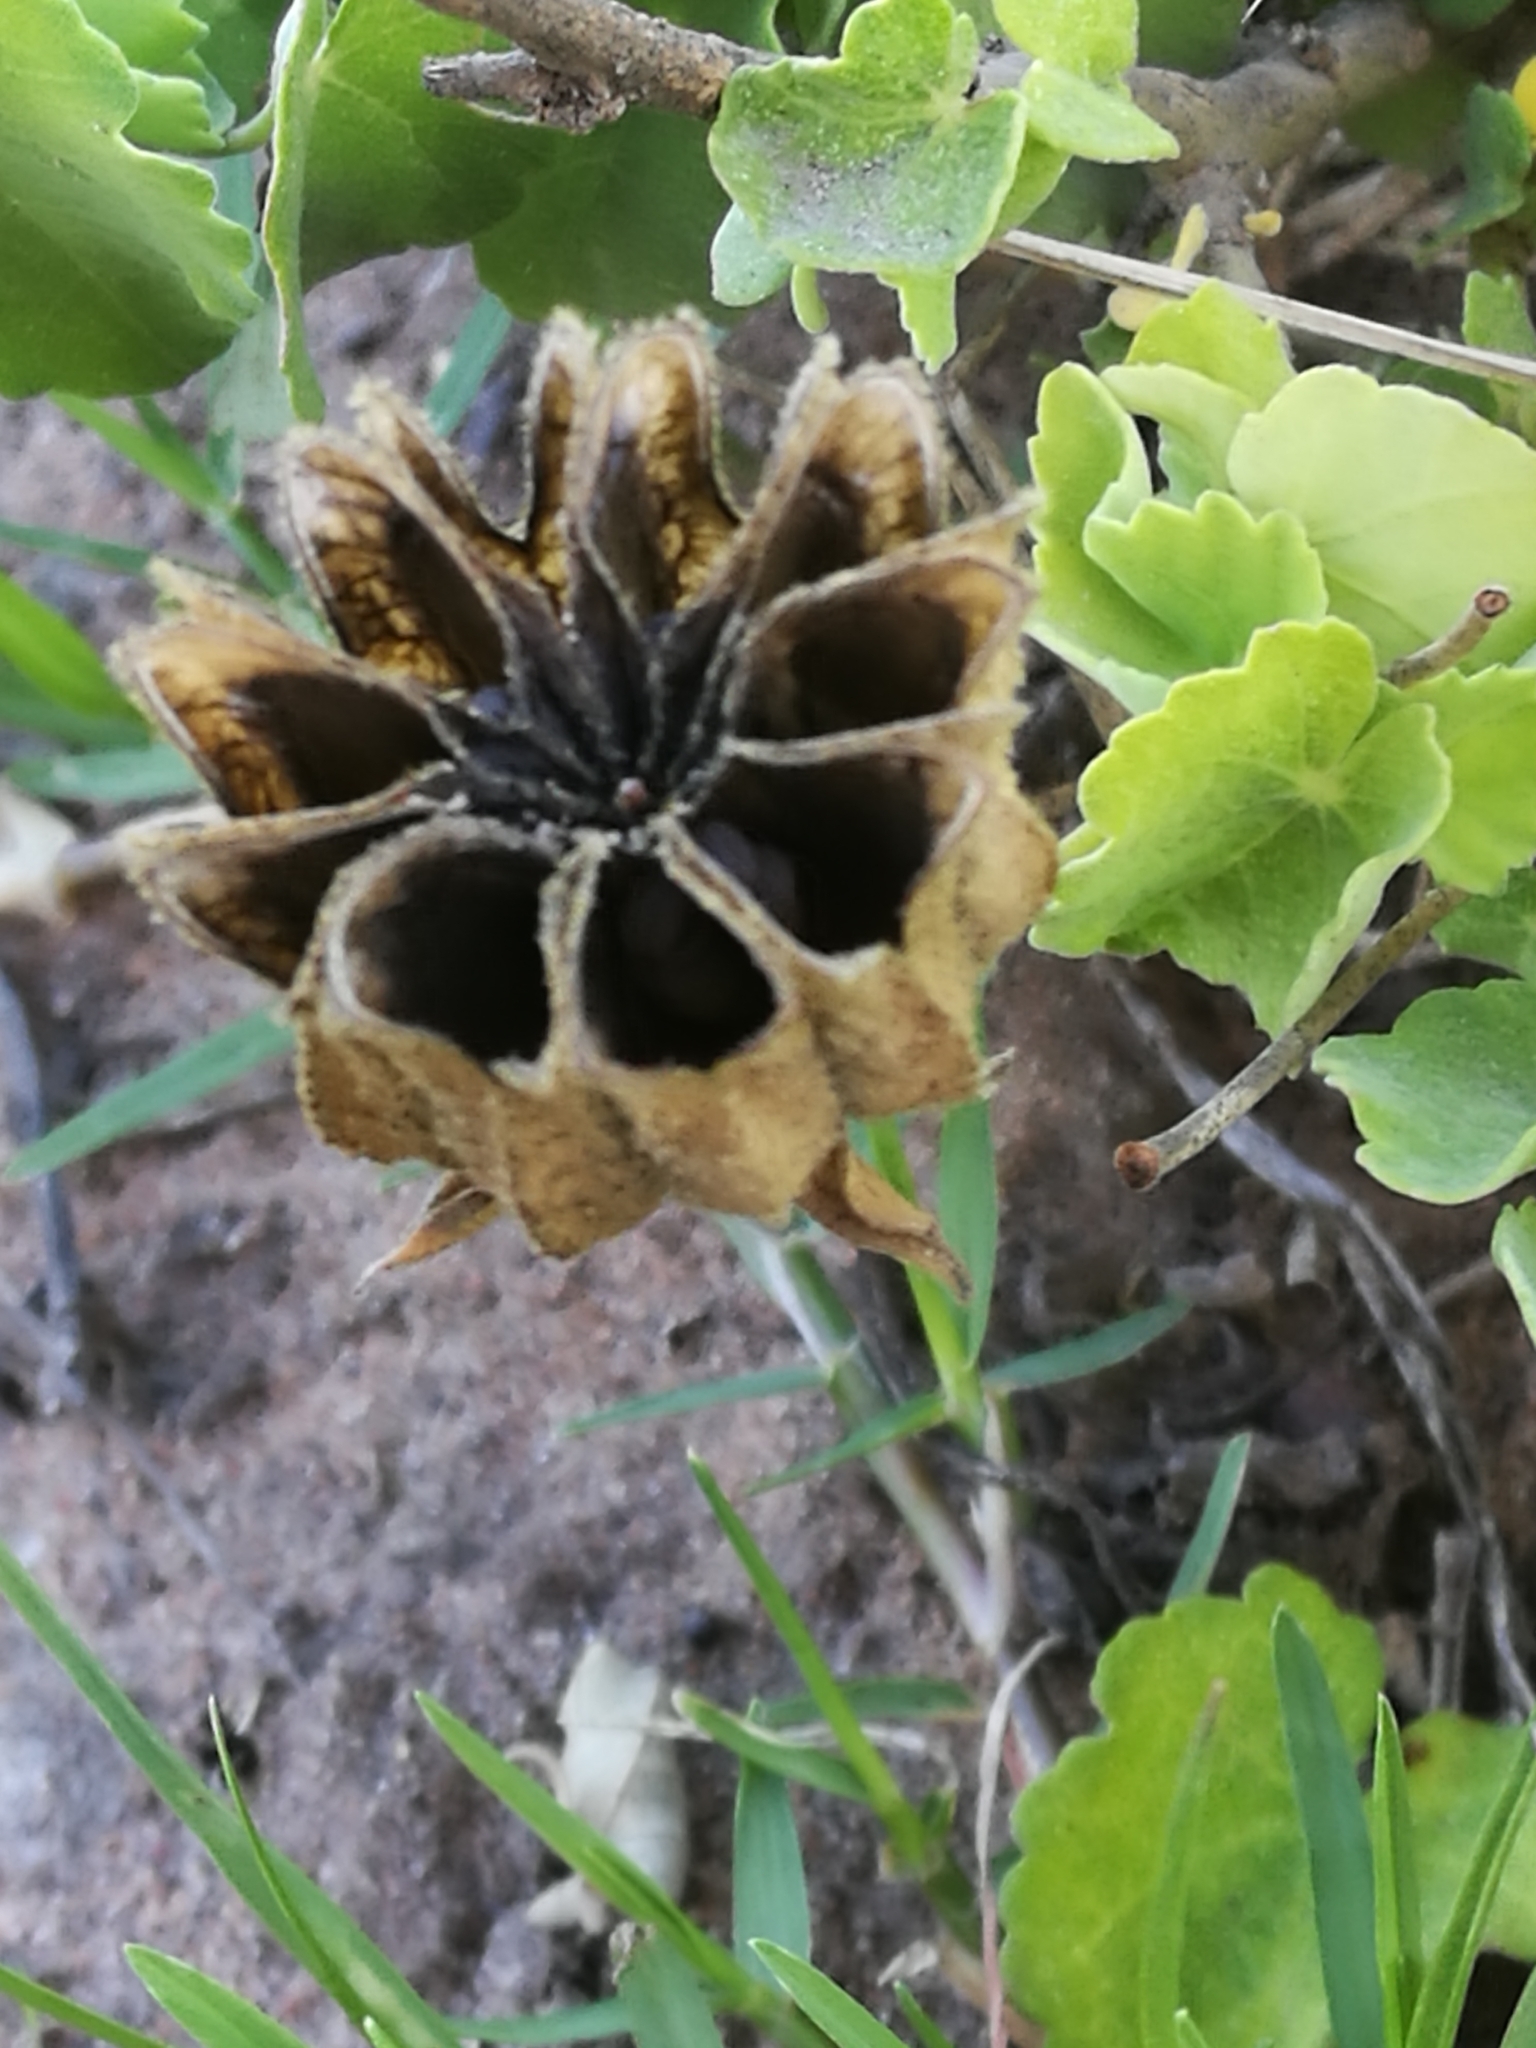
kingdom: Plantae
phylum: Tracheophyta
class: Magnoliopsida
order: Malvales
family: Malvaceae
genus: Abutilon
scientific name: Abutilon sonneratianum
